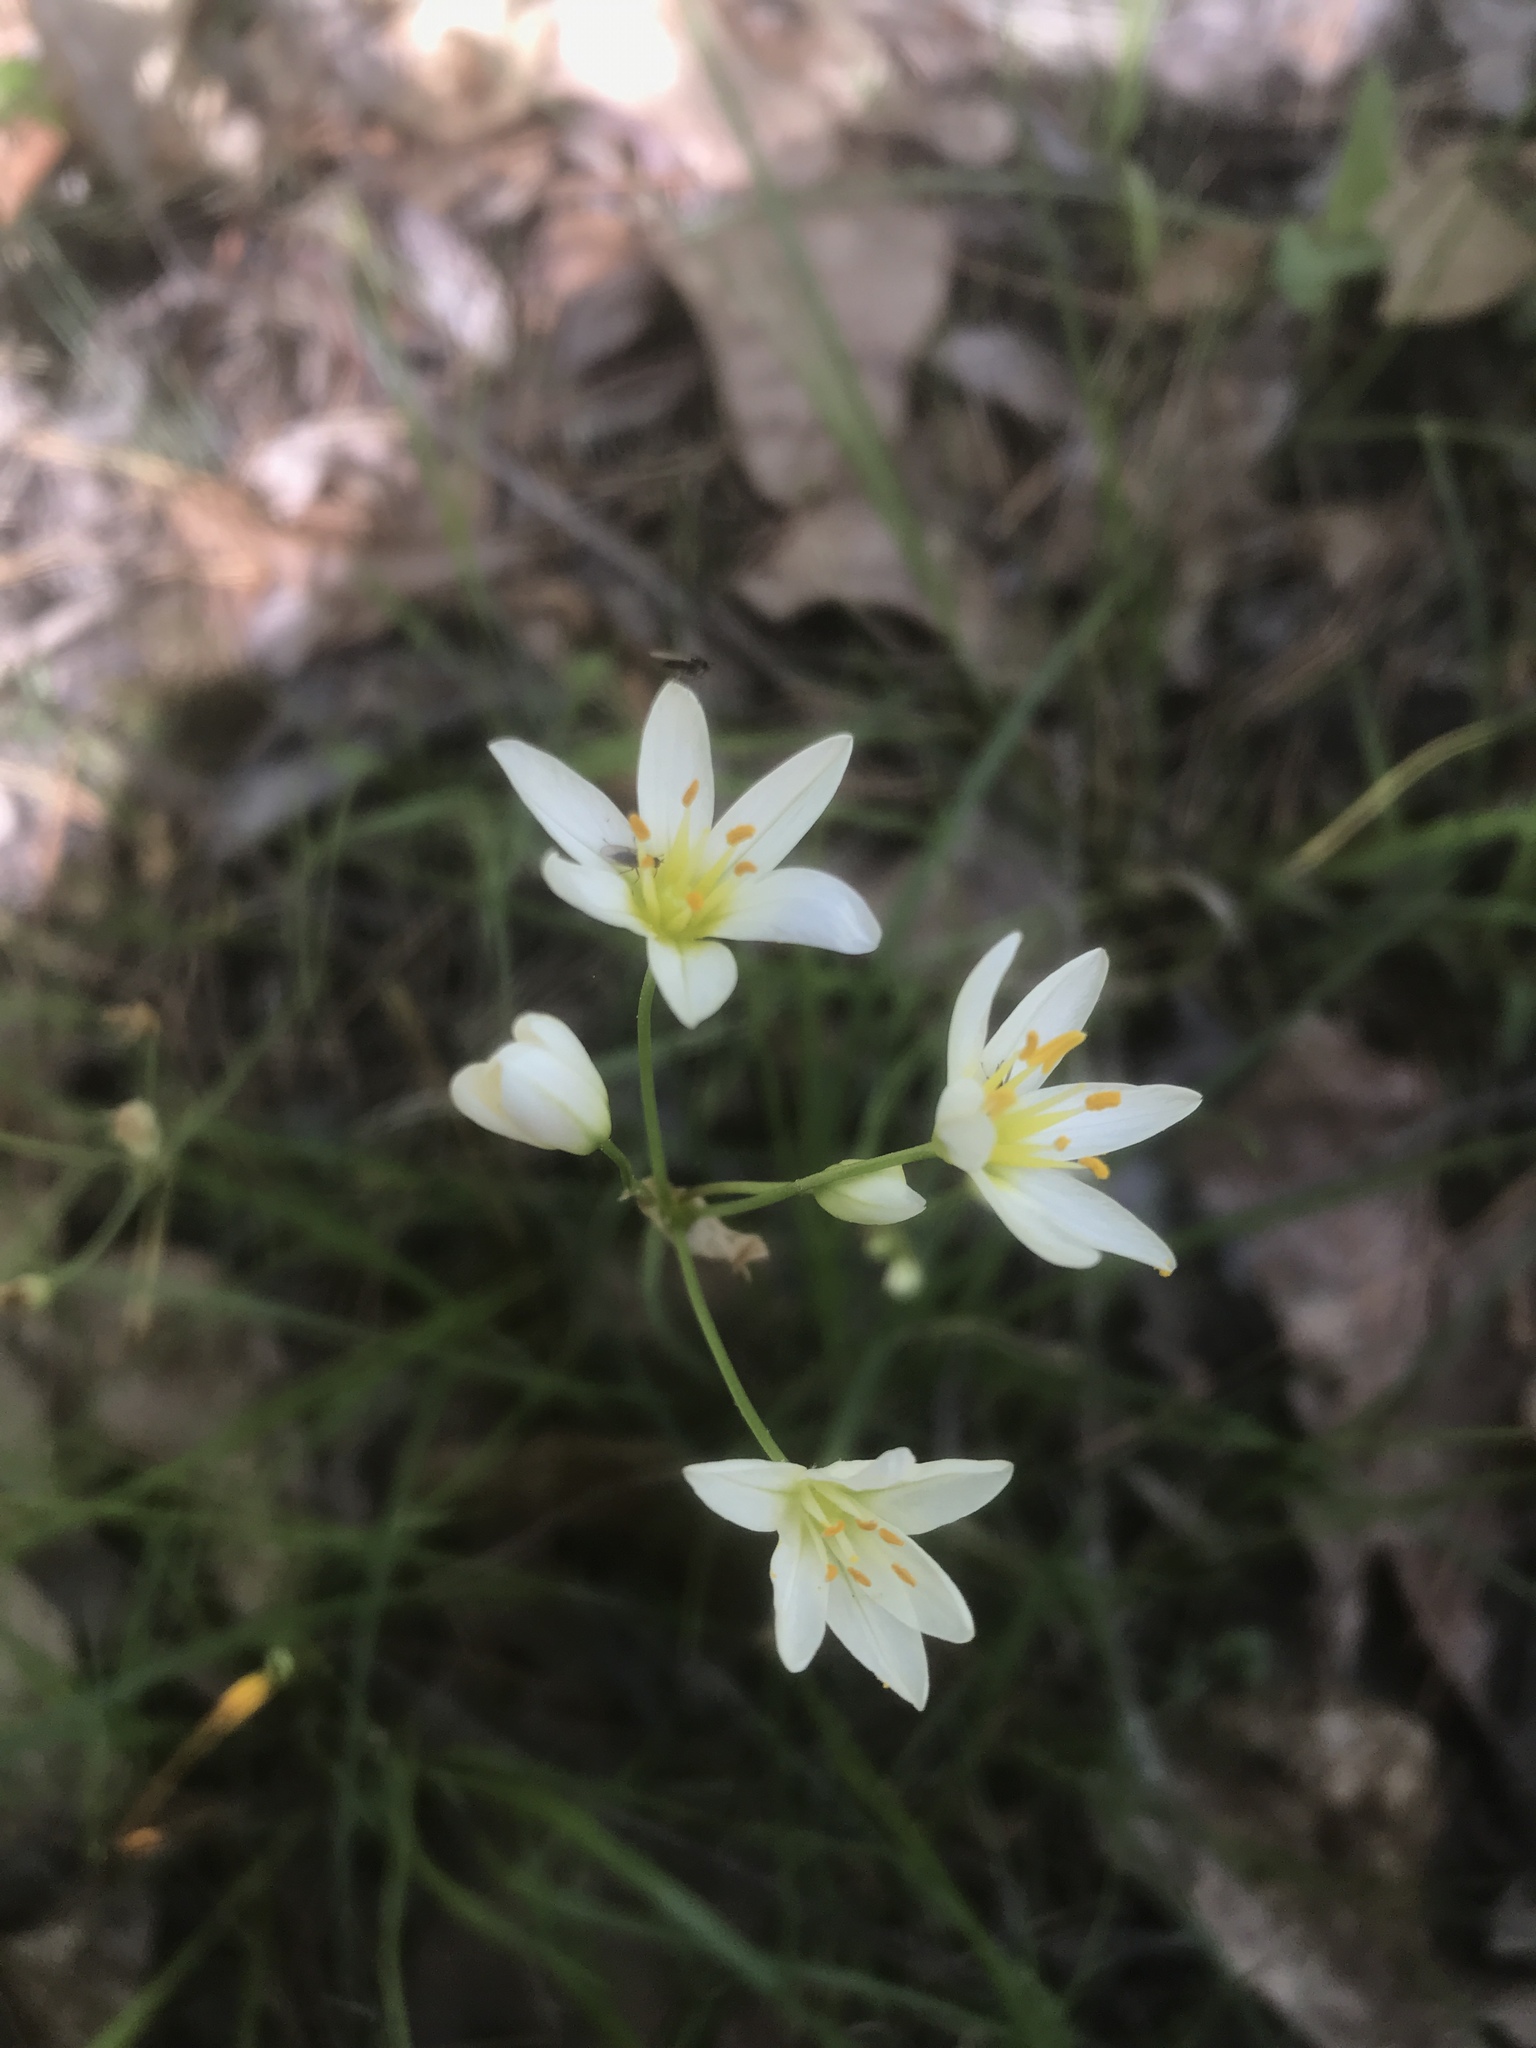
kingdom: Plantae
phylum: Tracheophyta
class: Liliopsida
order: Asparagales
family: Amaryllidaceae
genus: Nothoscordum
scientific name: Nothoscordum bivalve
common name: Crow-poison
